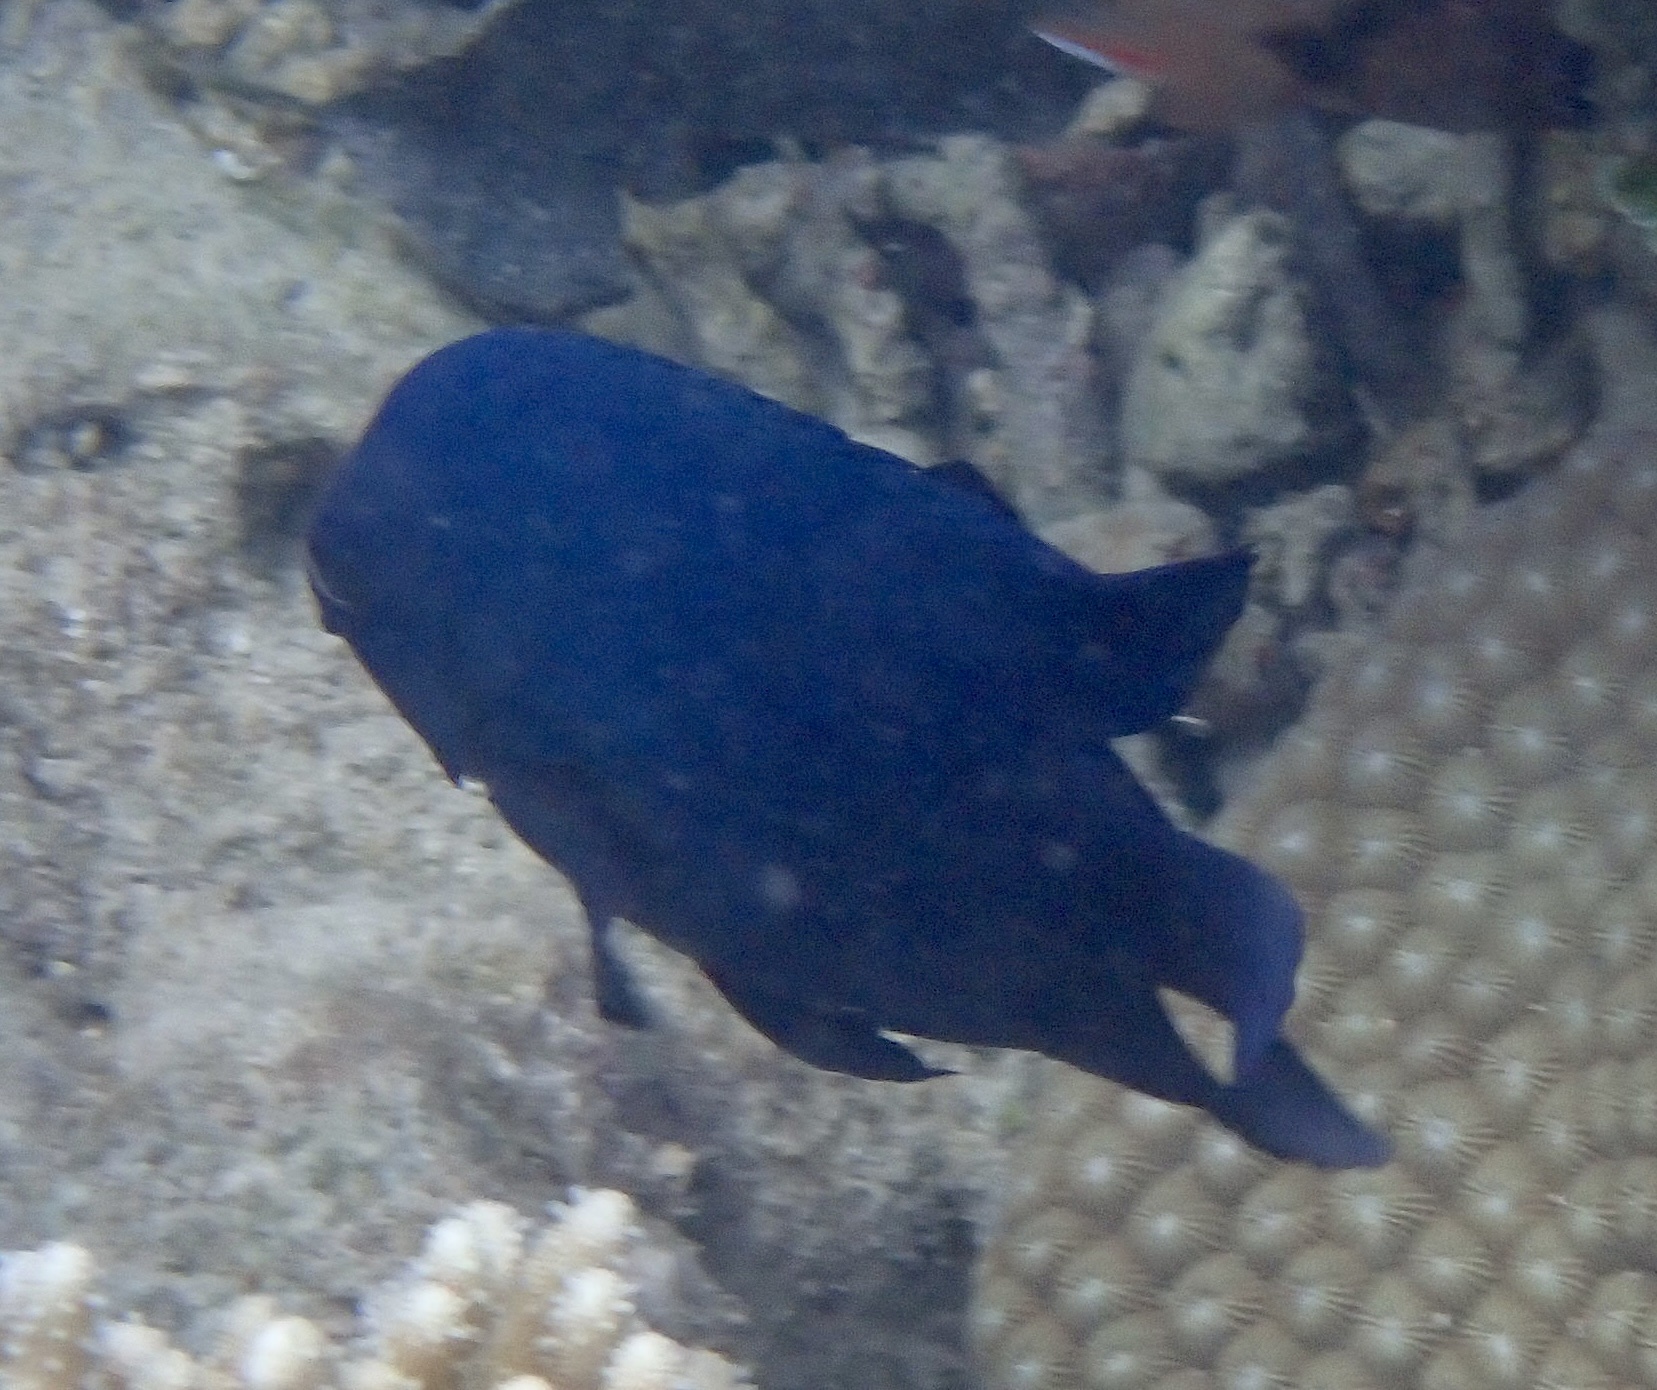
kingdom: Animalia
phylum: Chordata
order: Perciformes
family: Pomacentridae
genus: Neoglyphidodon
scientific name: Neoglyphidodon melas
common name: Black damsel
